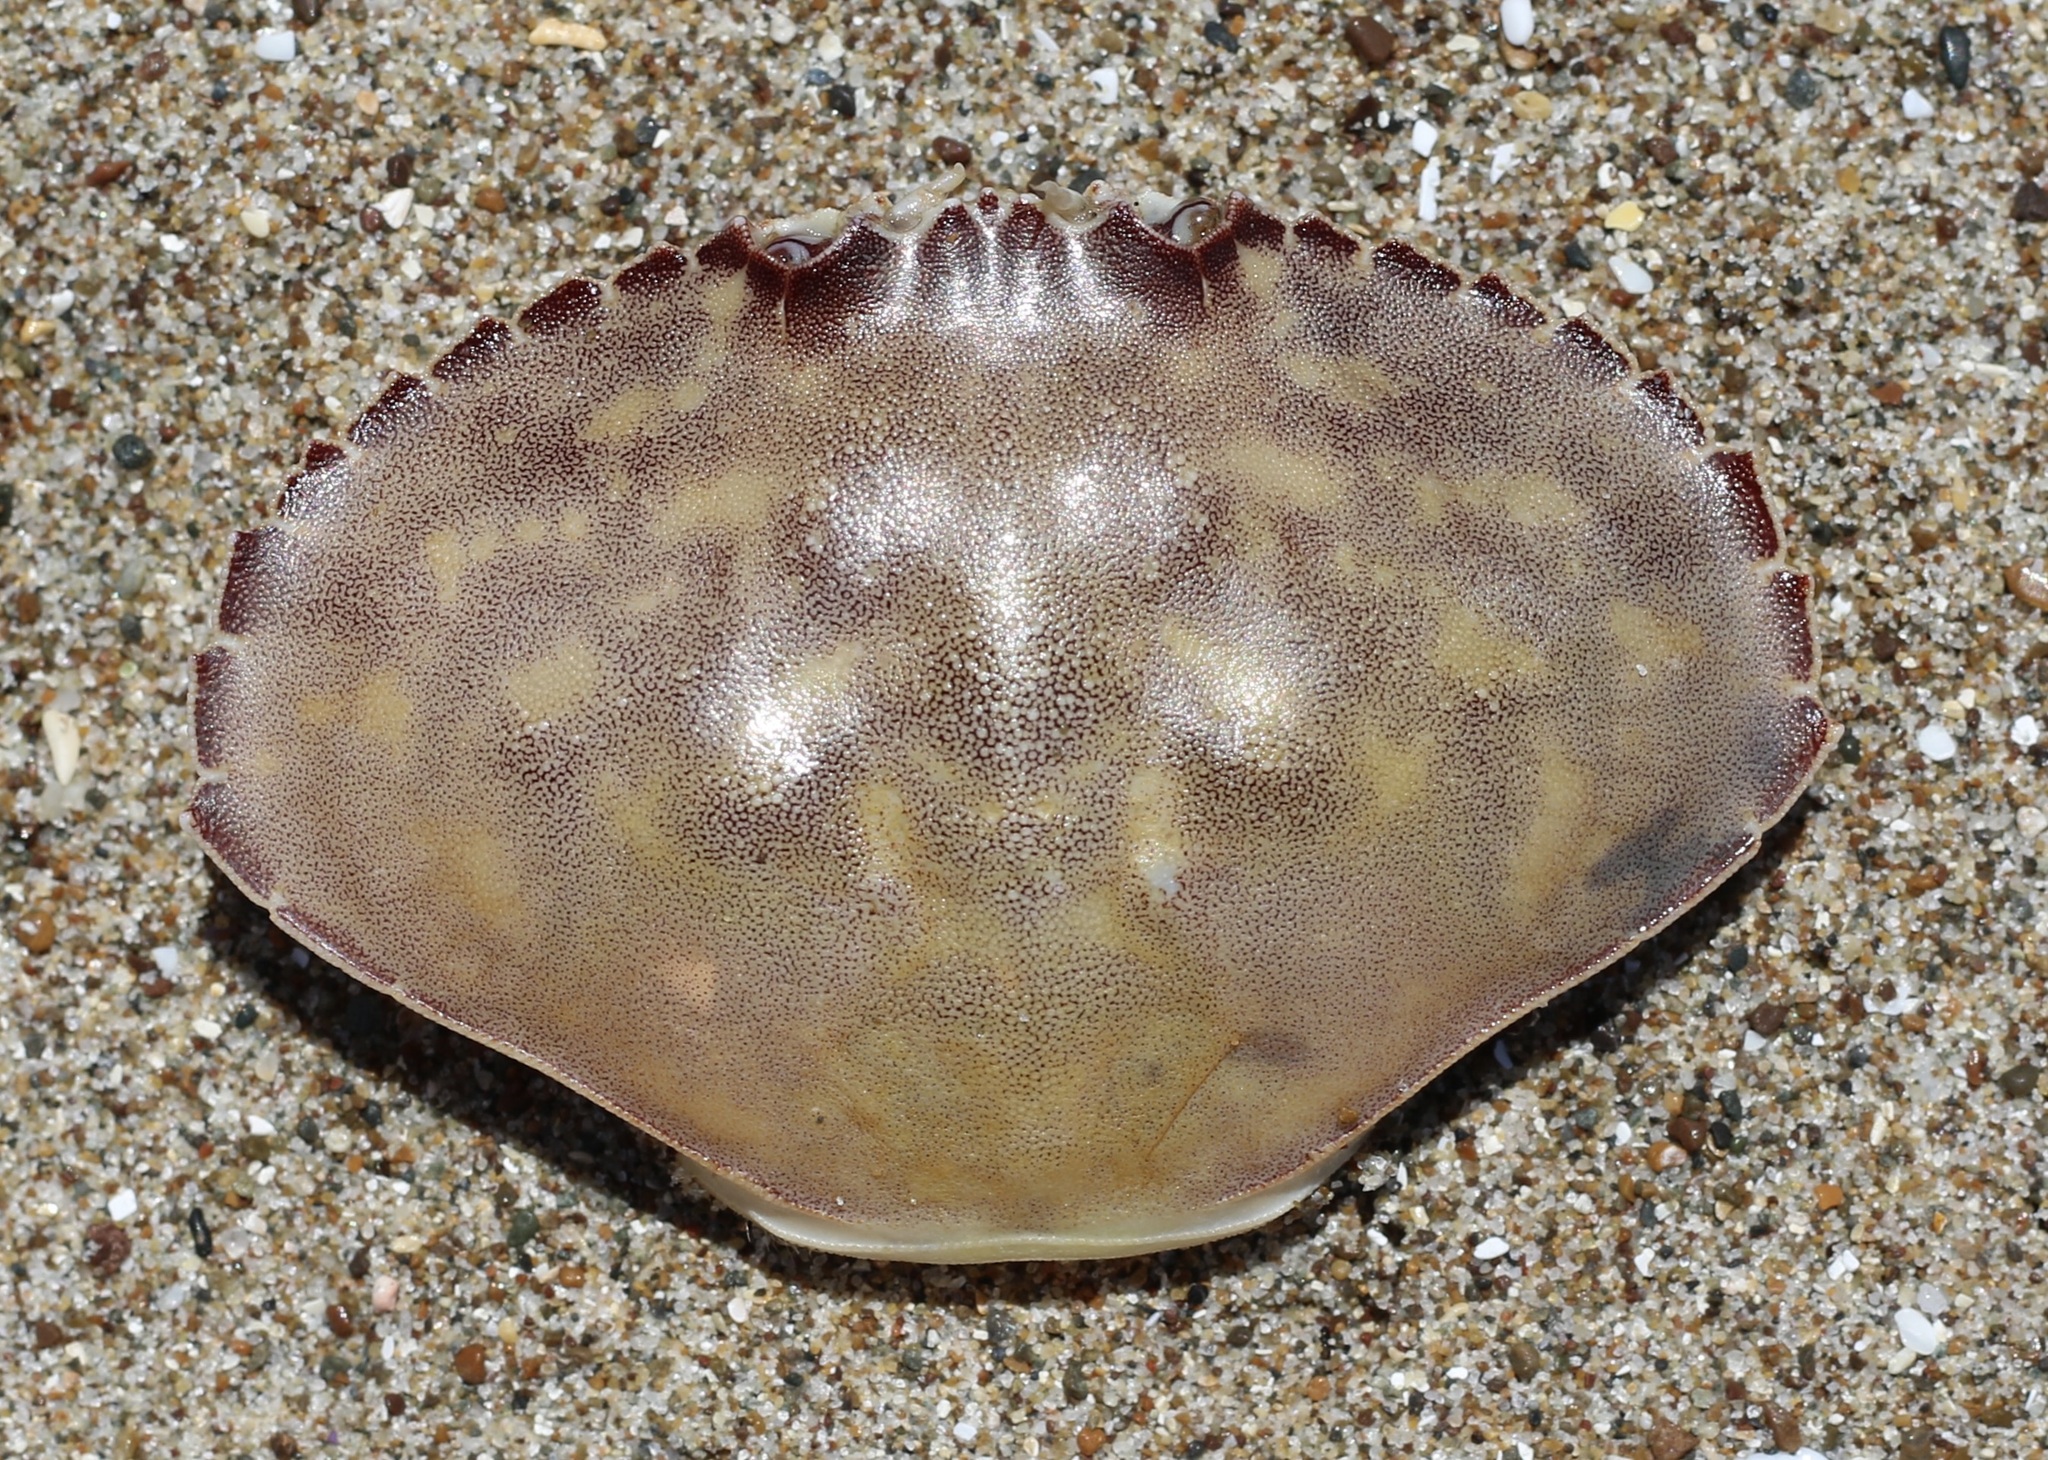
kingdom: Animalia
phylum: Arthropoda
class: Malacostraca
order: Decapoda
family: Cancridae
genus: Metacarcinus
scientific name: Metacarcinus gracilis
